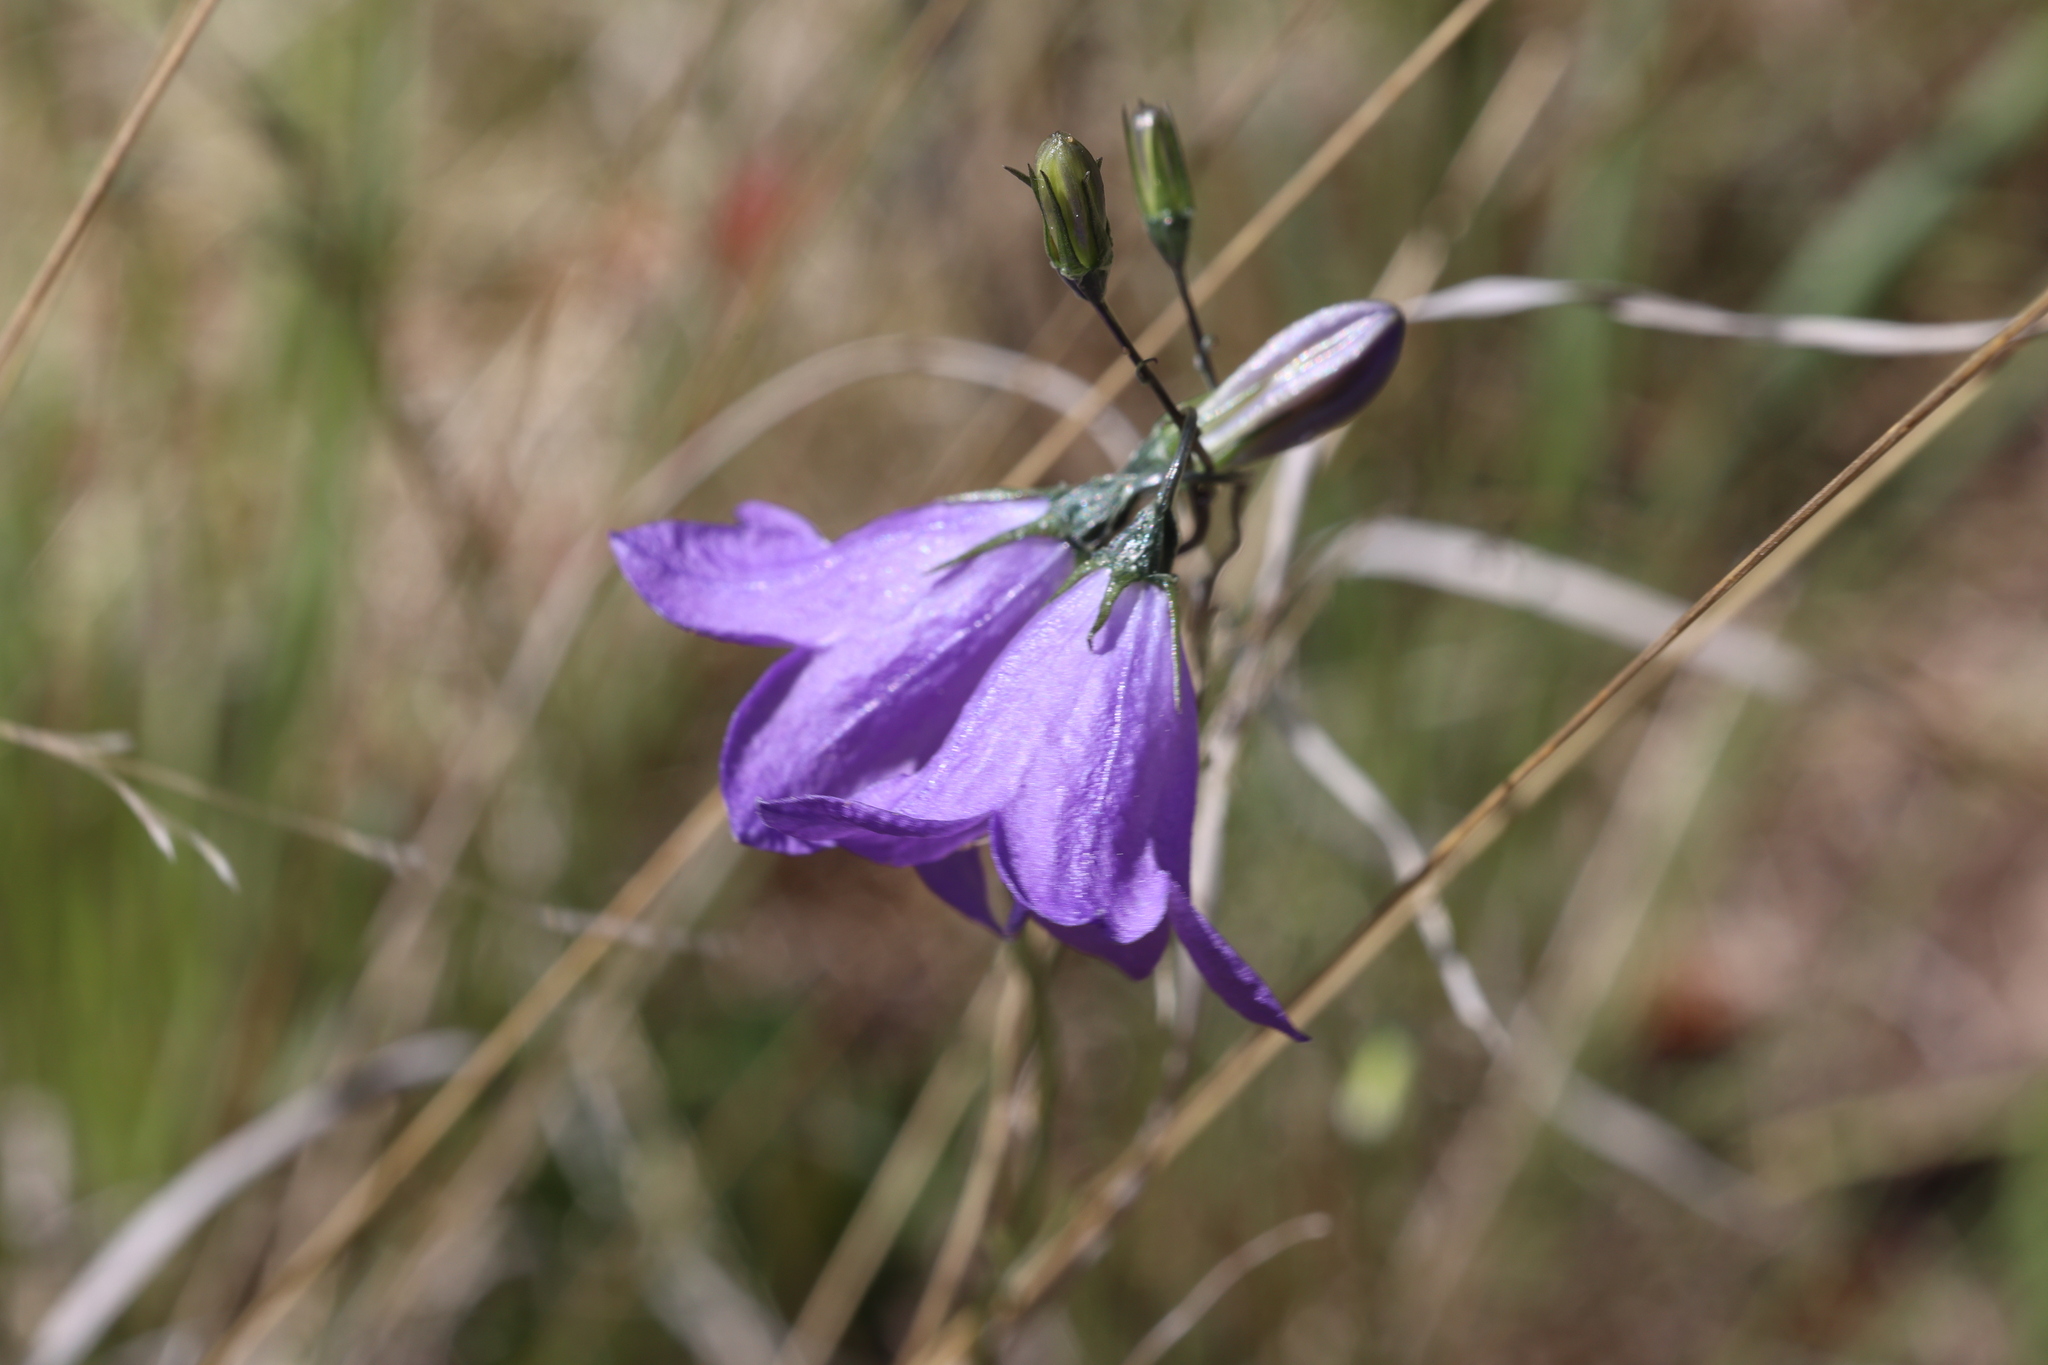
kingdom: Plantae
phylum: Tracheophyta
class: Magnoliopsida
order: Asterales
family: Campanulaceae
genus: Campanula
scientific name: Campanula petiolata
